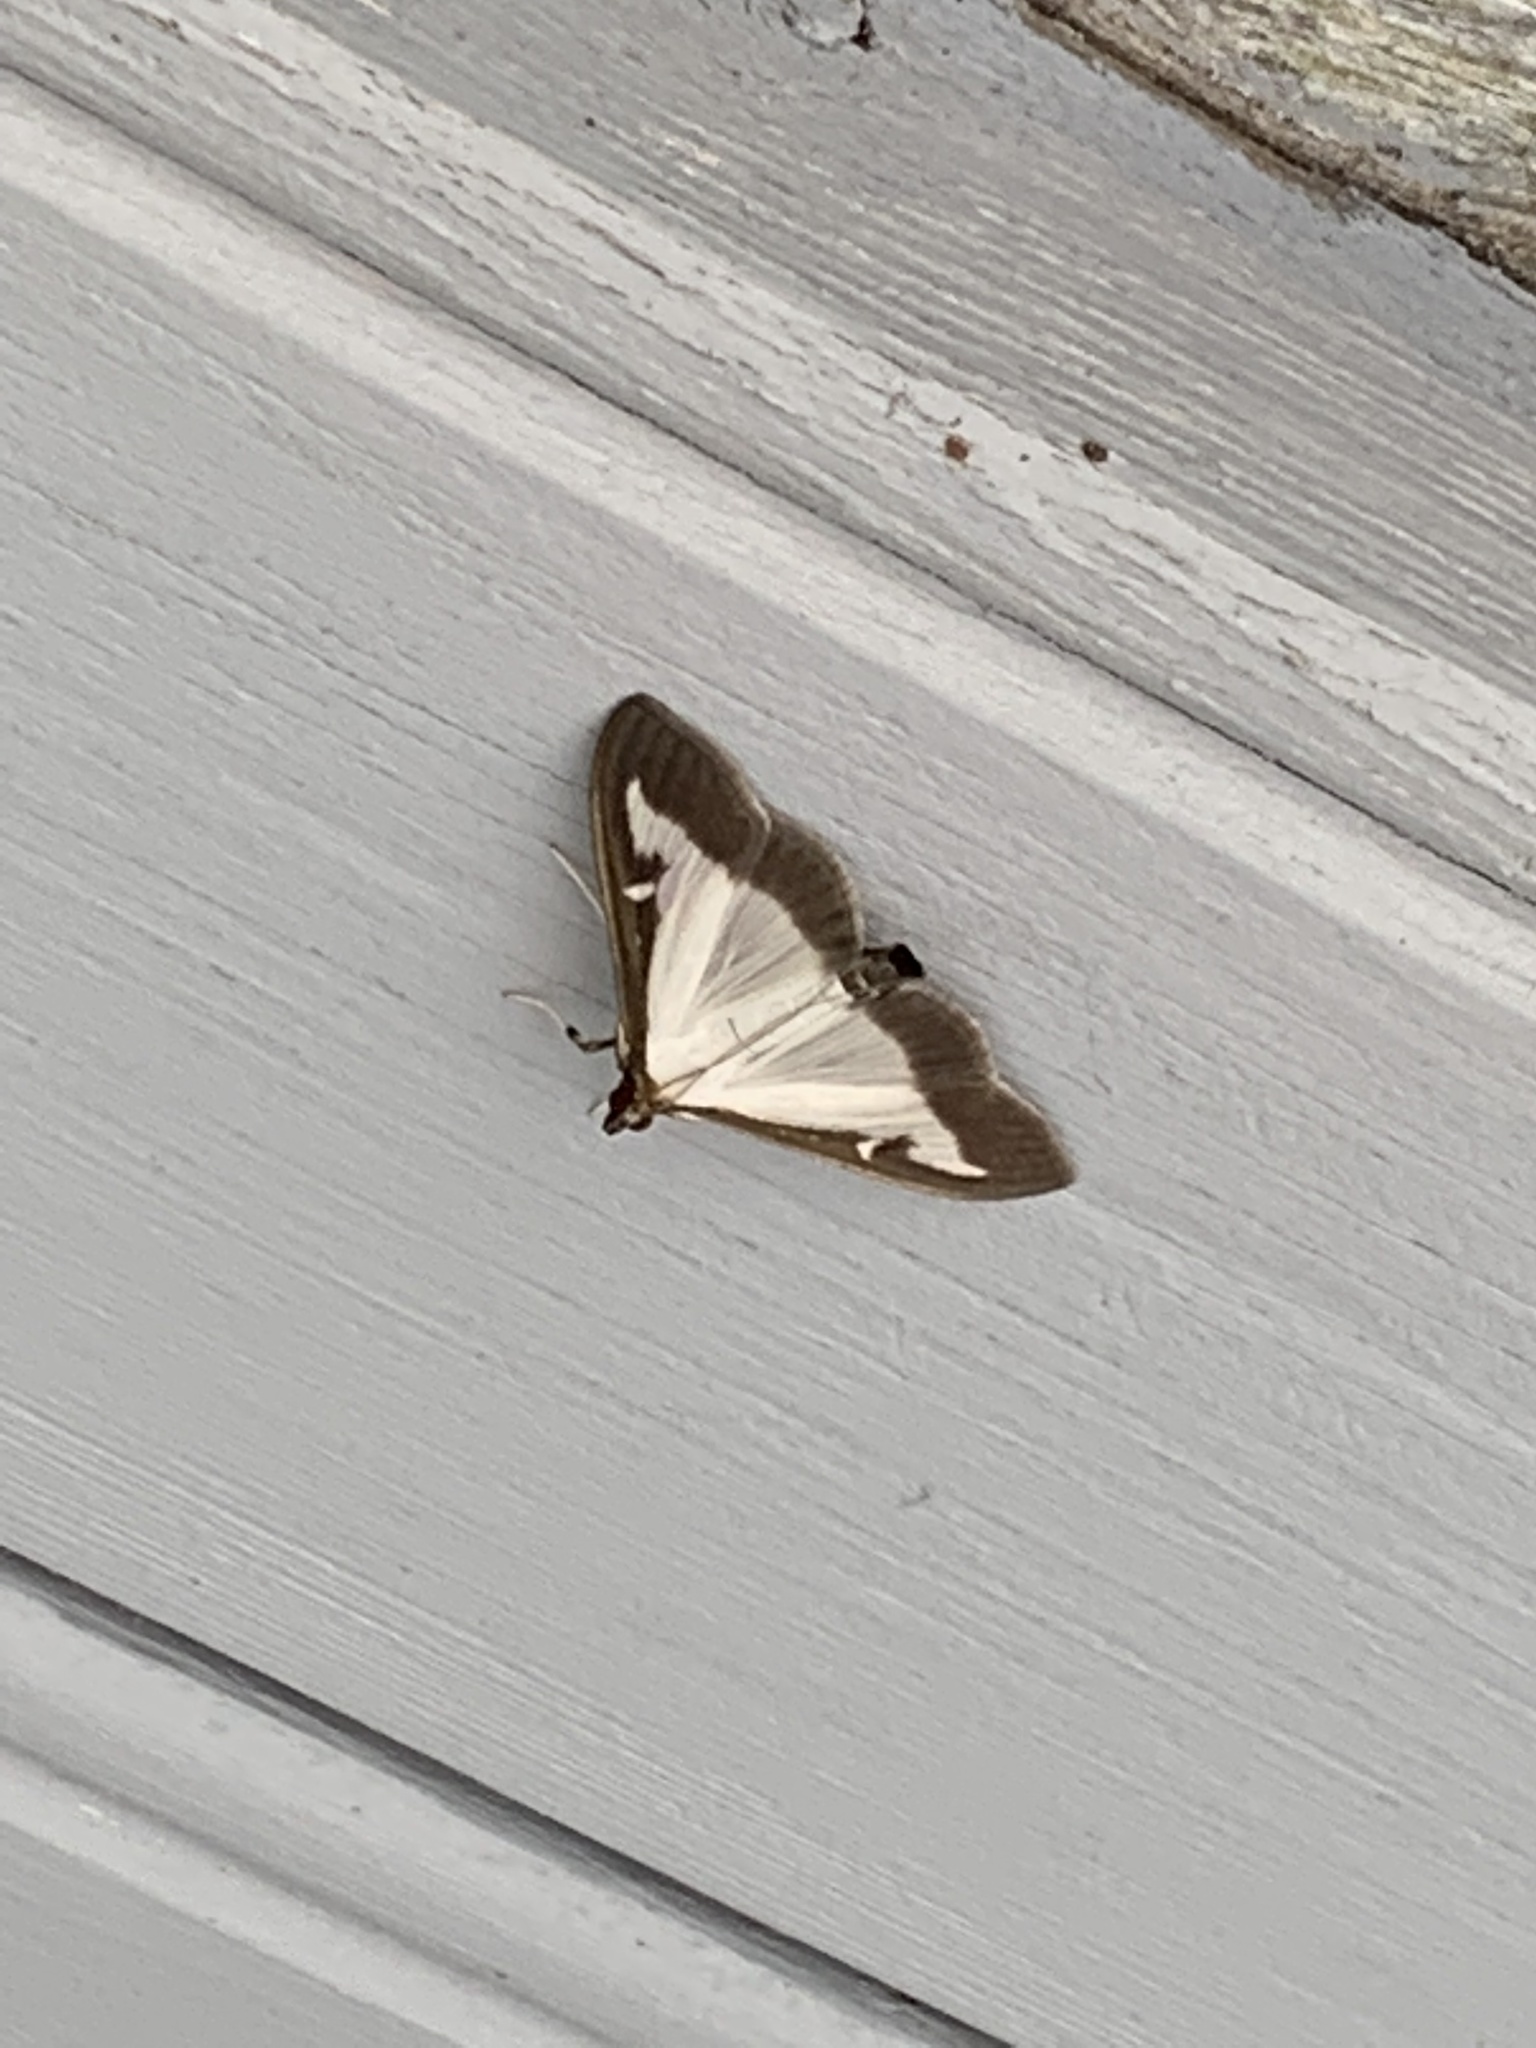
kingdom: Animalia
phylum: Arthropoda
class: Insecta
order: Lepidoptera
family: Crambidae
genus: Cydalima
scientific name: Cydalima perspectalis
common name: Box tree moth
